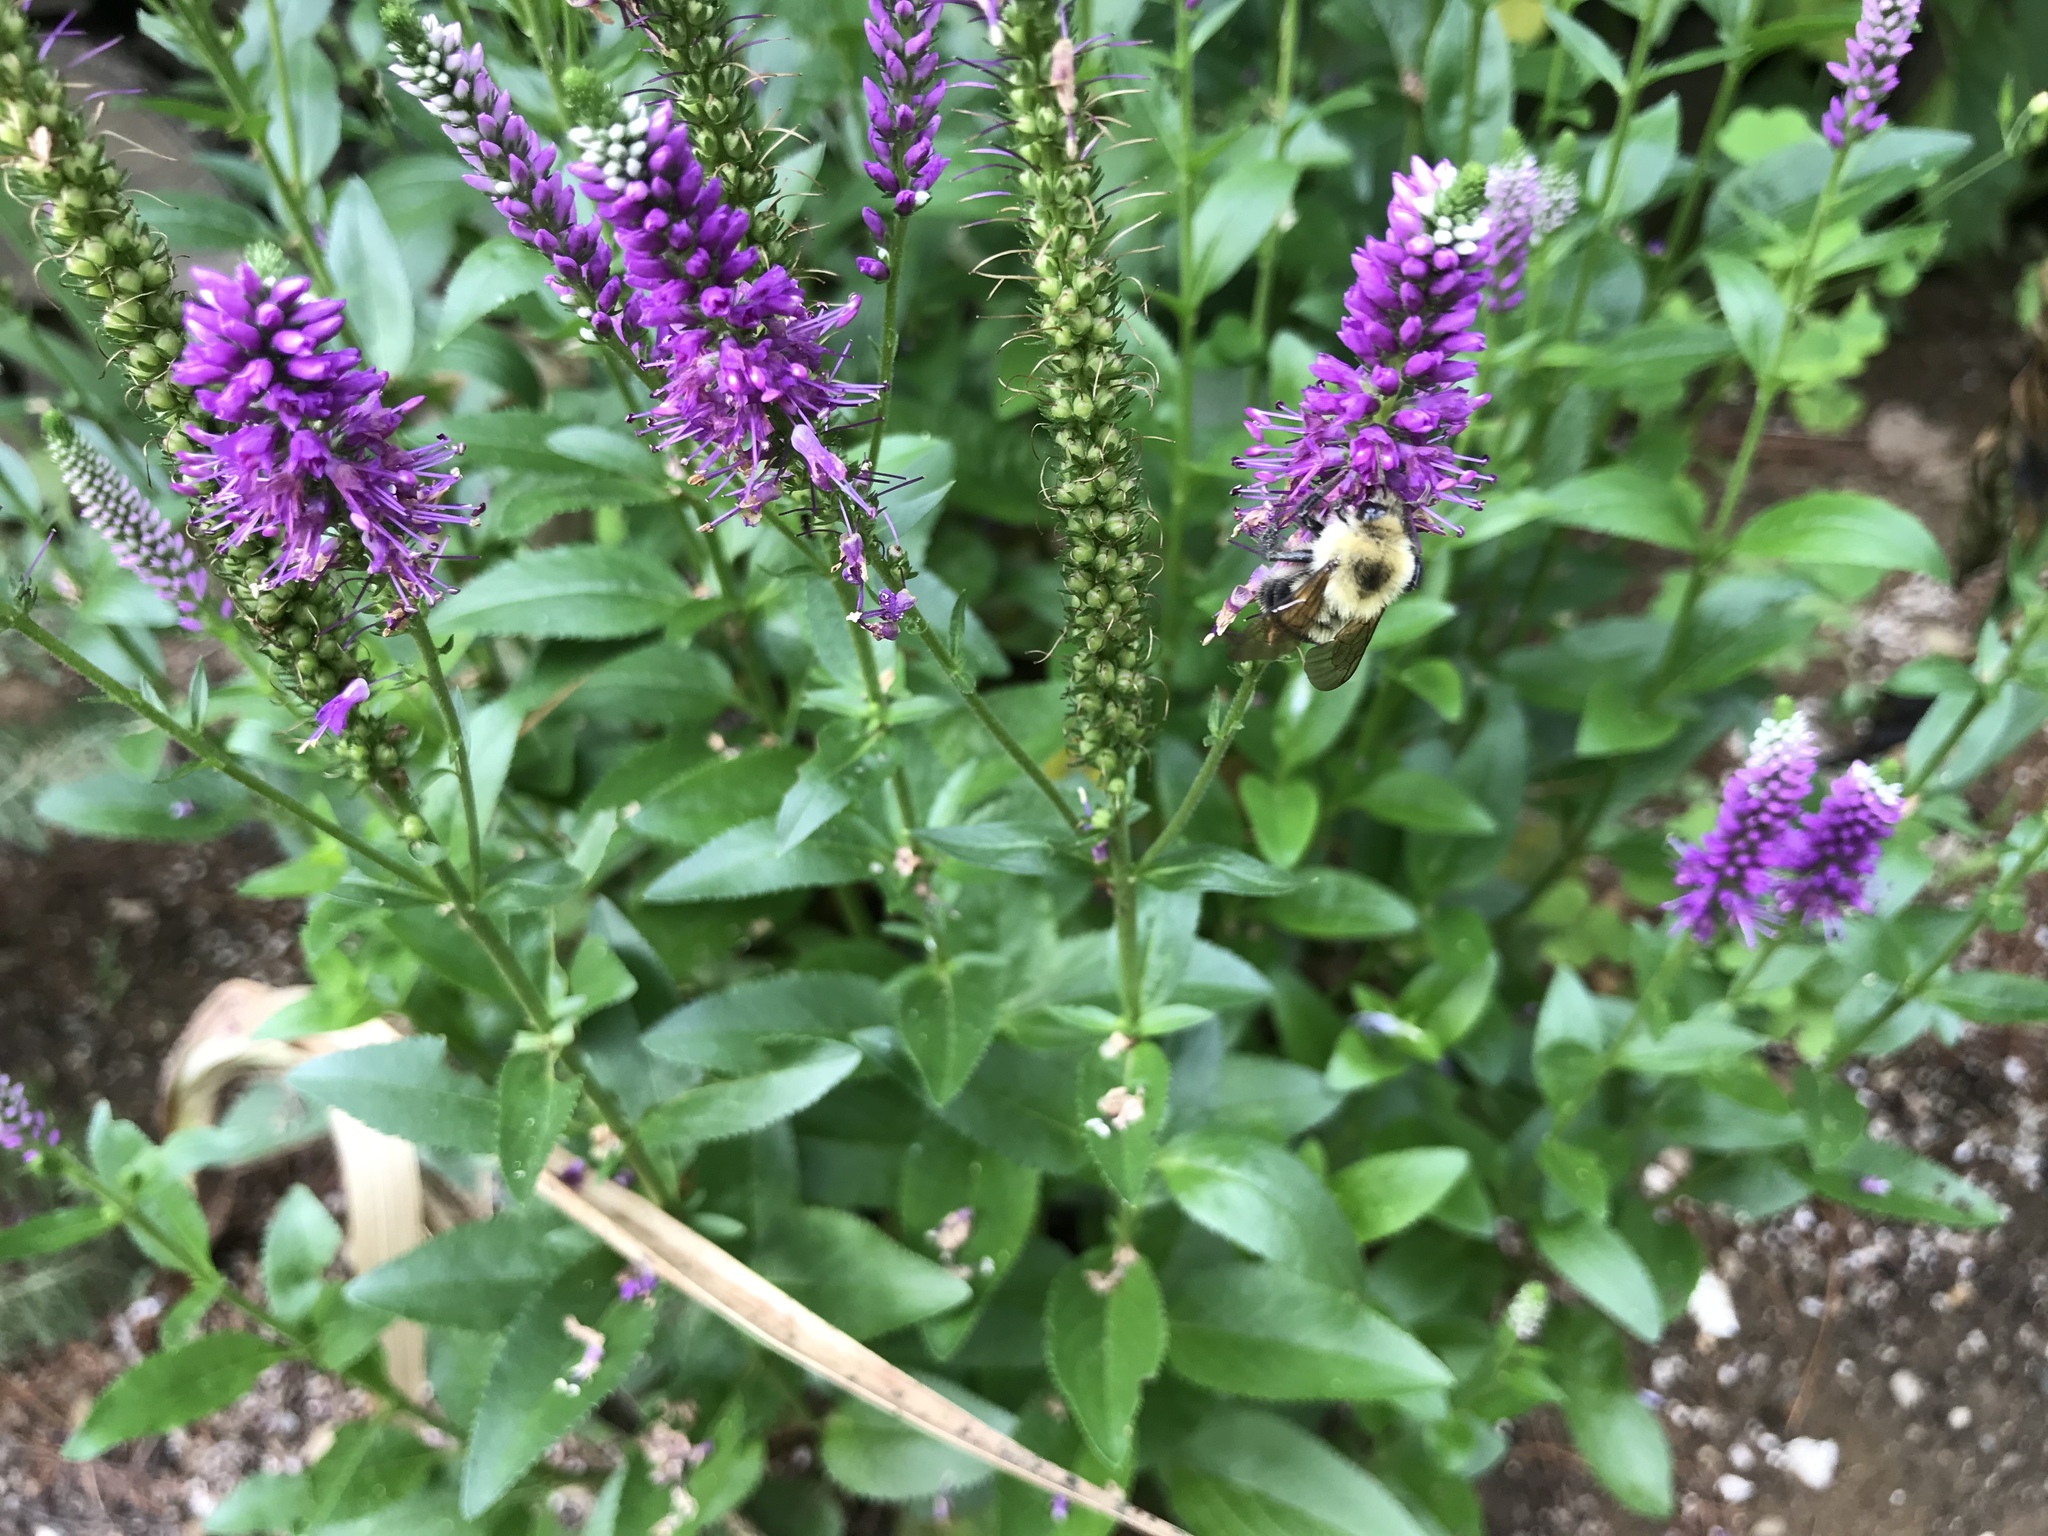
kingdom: Animalia
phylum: Arthropoda
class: Insecta
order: Hymenoptera
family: Apidae
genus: Bombus
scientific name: Bombus bimaculatus
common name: Two-spotted bumble bee
